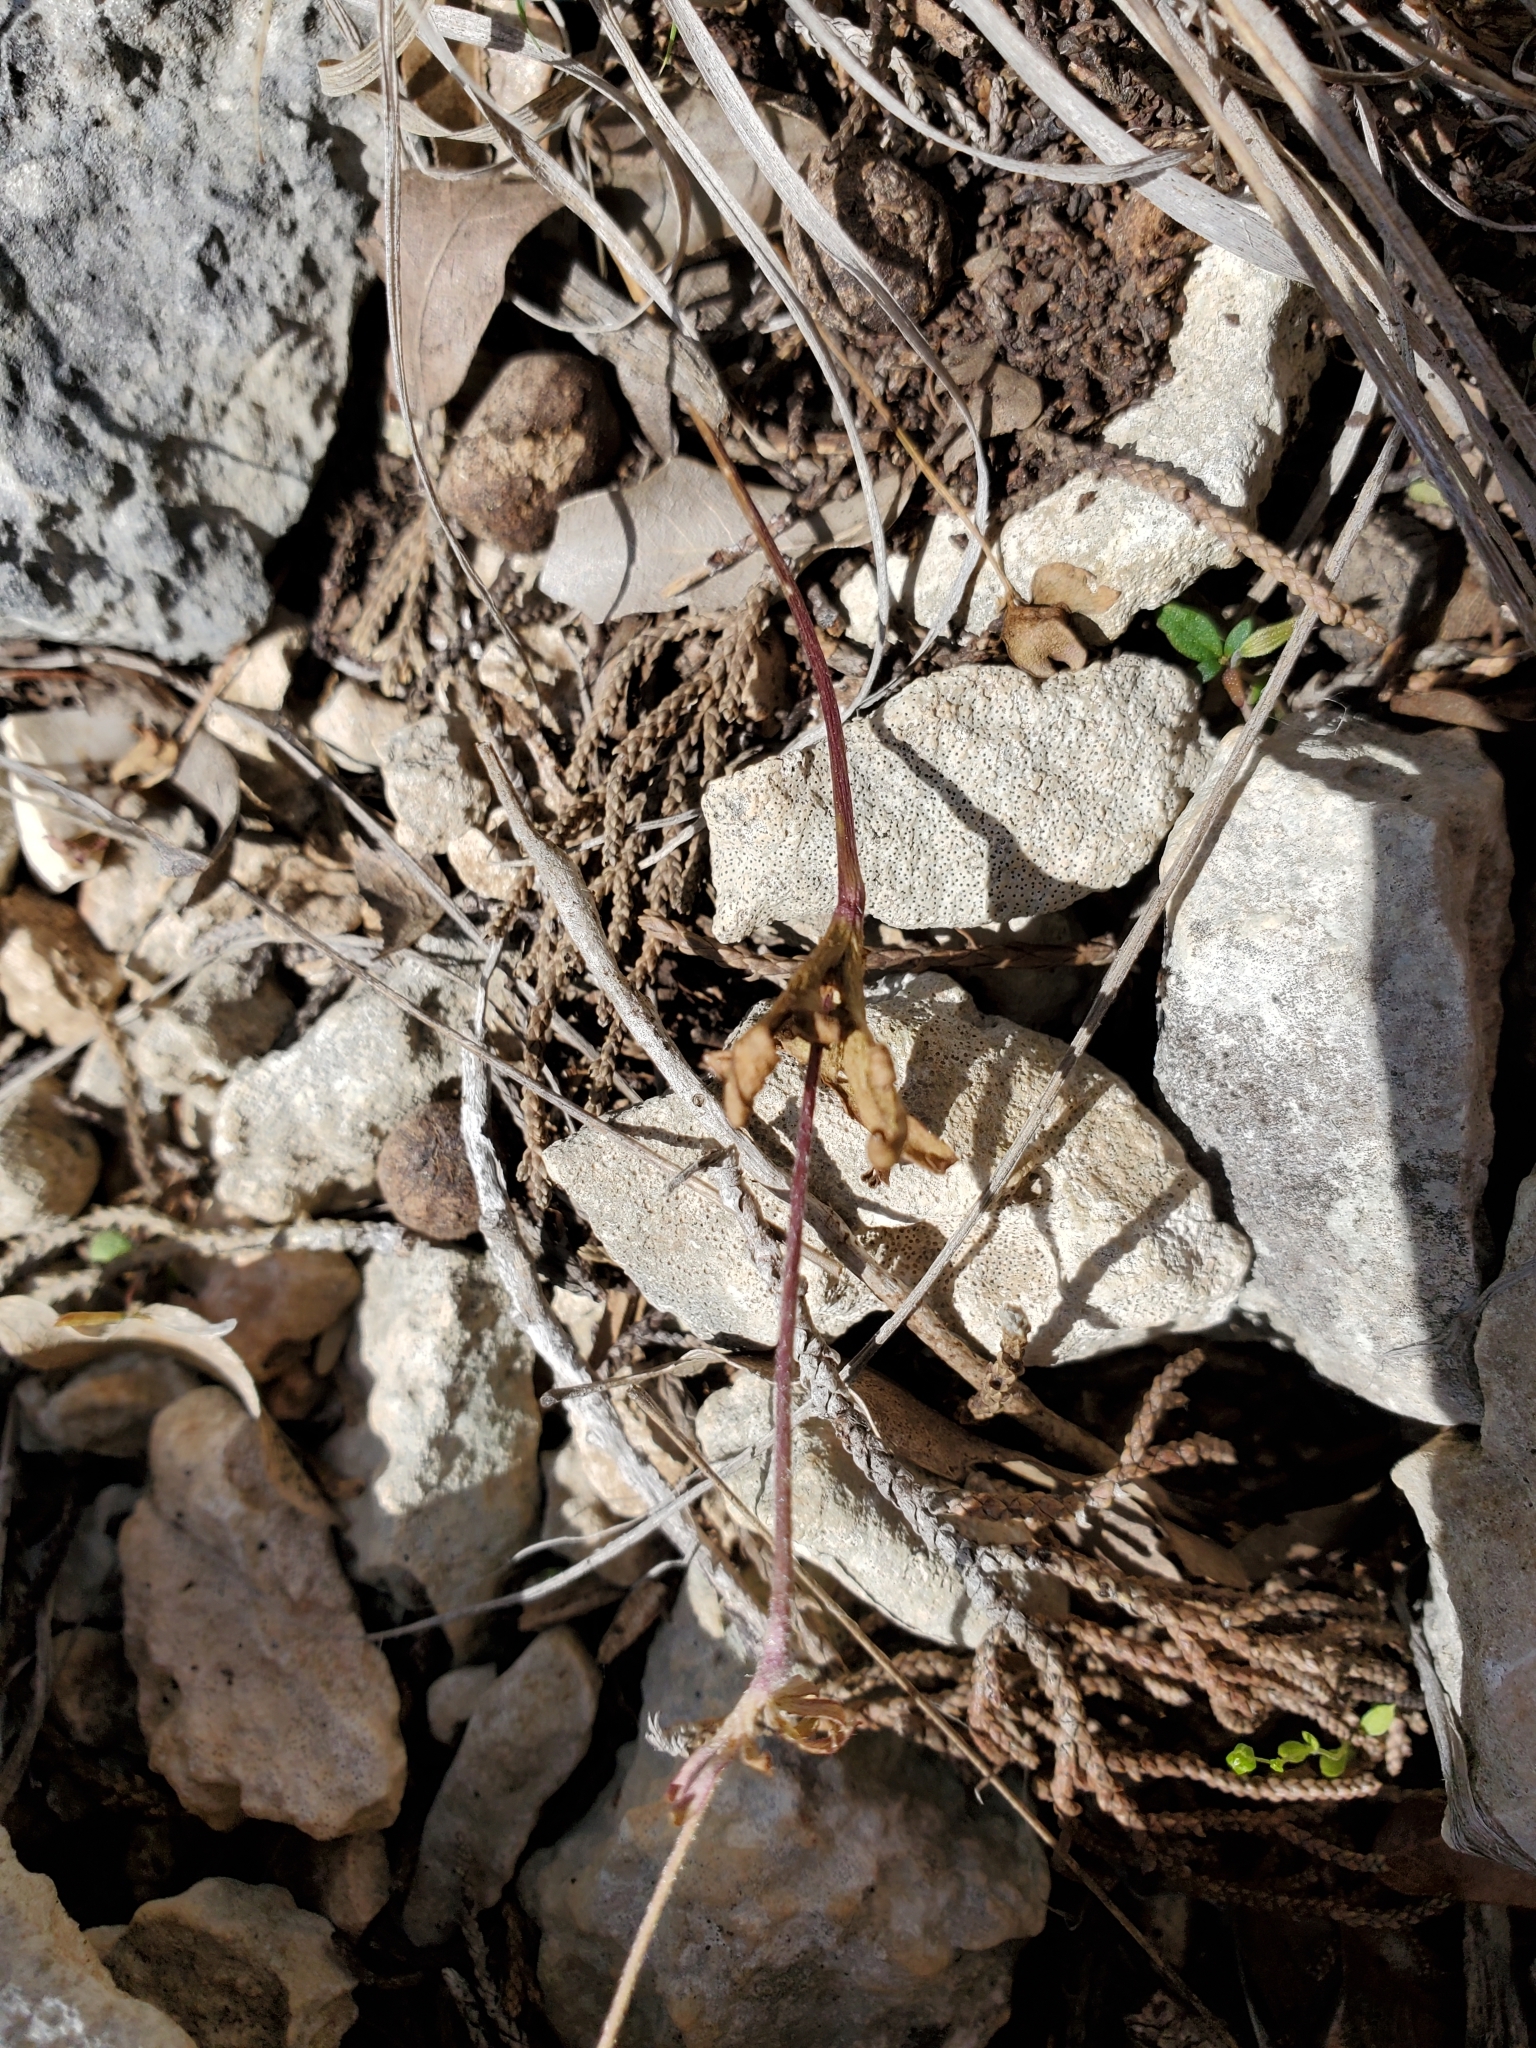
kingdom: Plantae
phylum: Tracheophyta
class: Magnoliopsida
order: Ranunculales
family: Ranunculaceae
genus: Anemone
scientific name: Anemone edwardsiana
